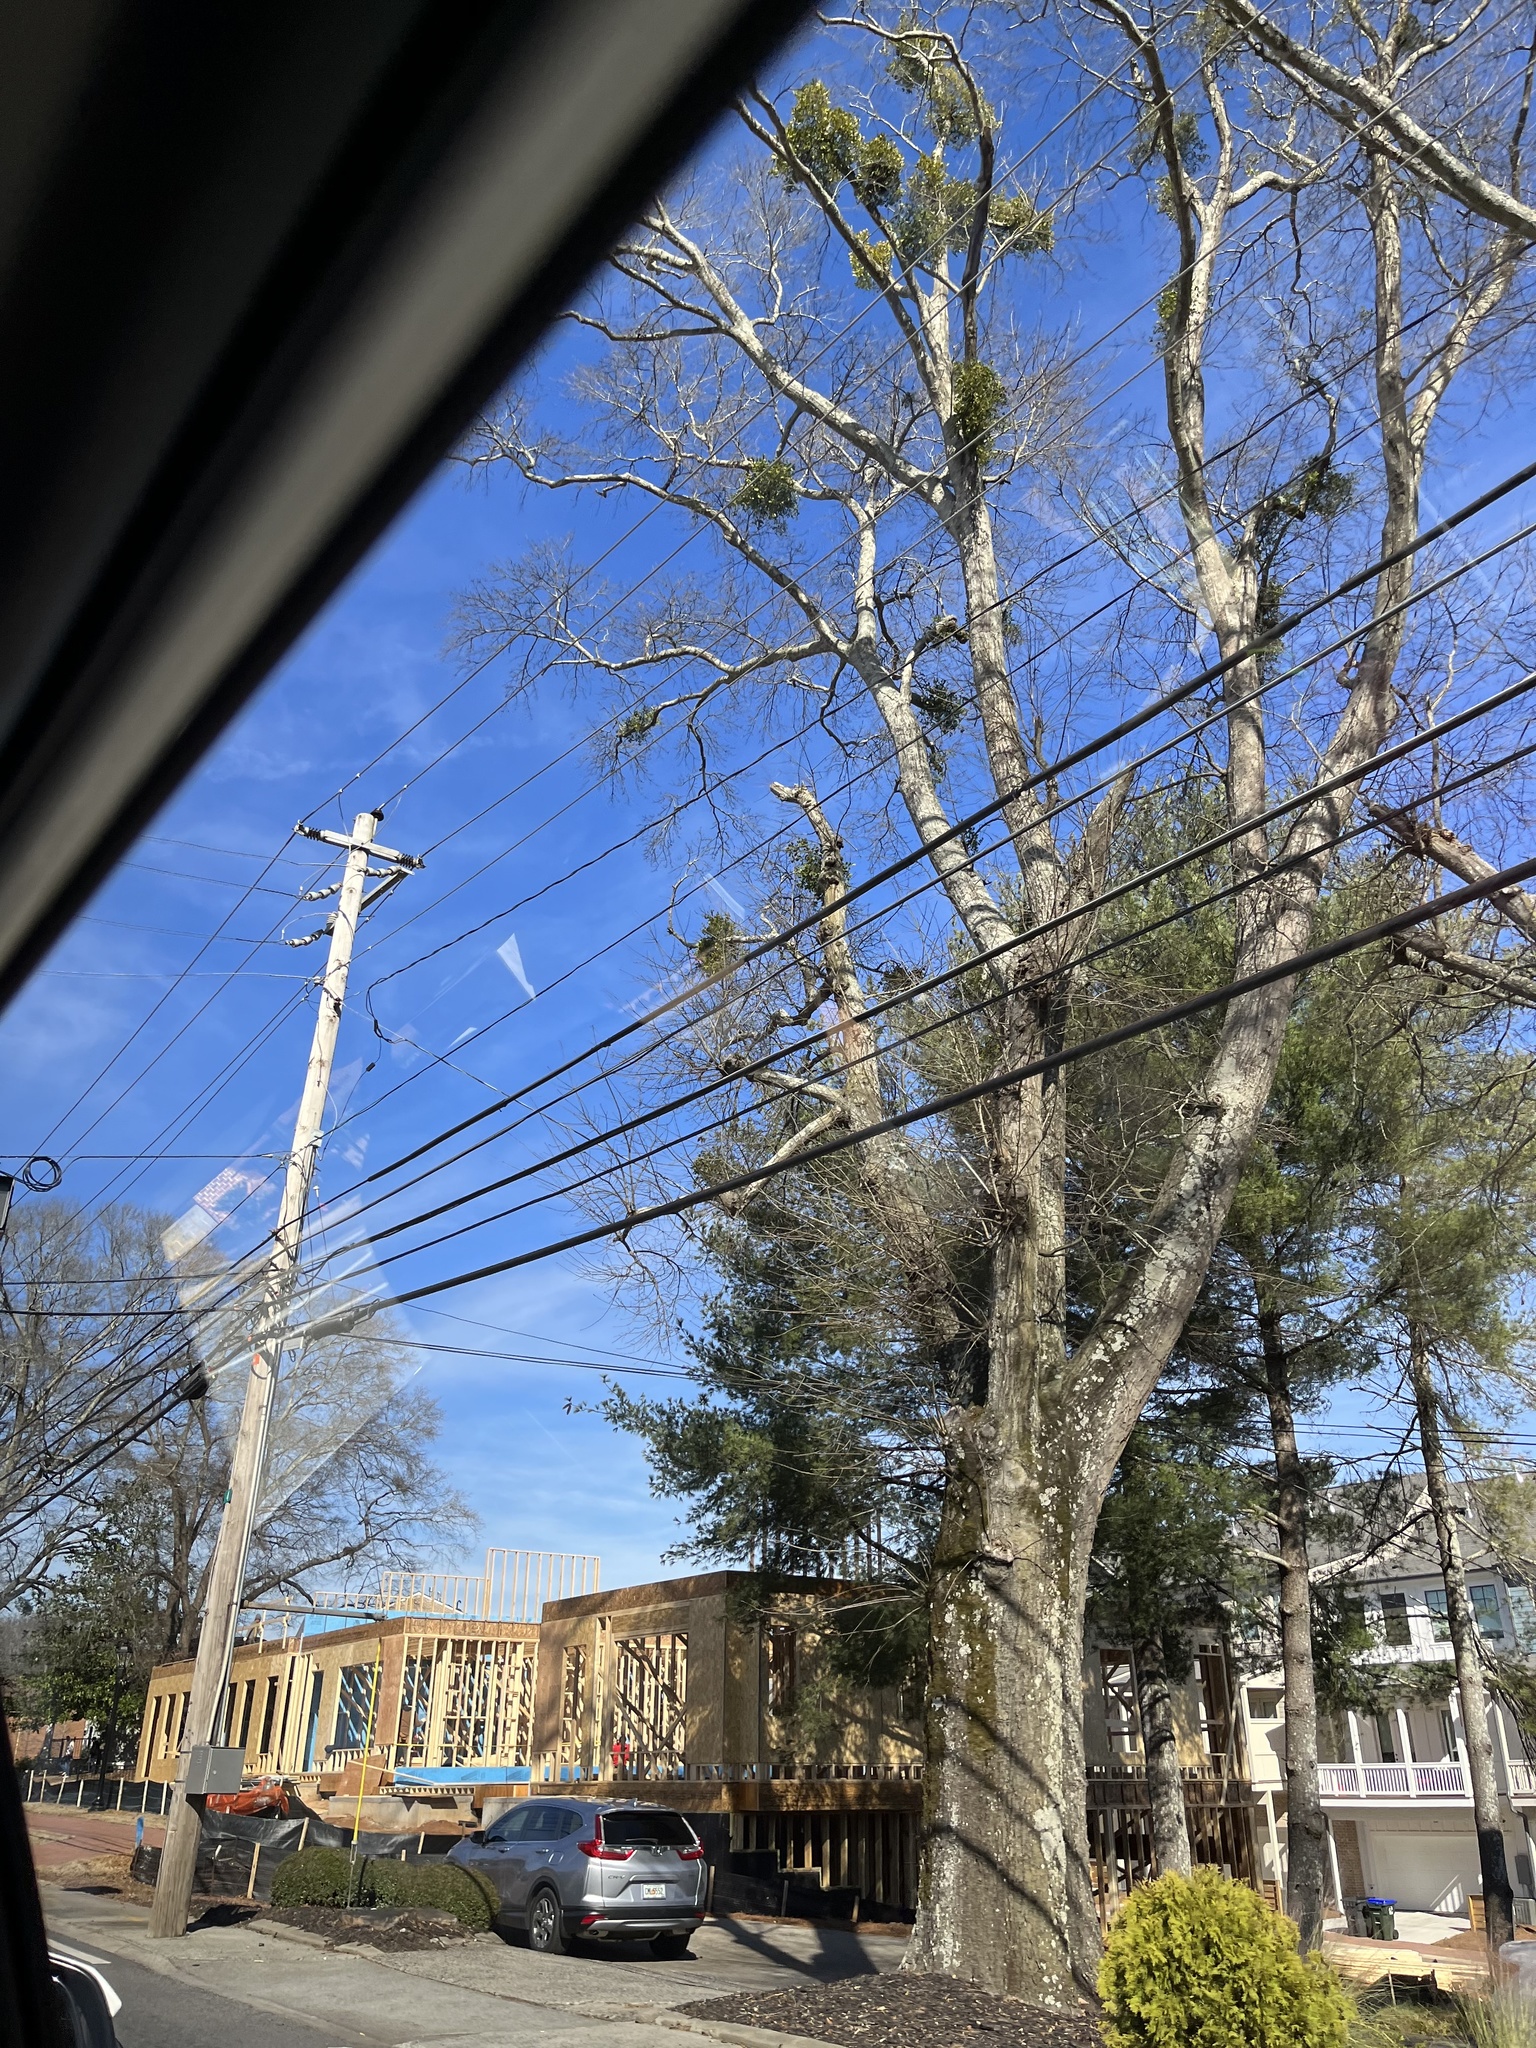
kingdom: Plantae
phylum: Tracheophyta
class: Magnoliopsida
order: Santalales
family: Viscaceae
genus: Phoradendron
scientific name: Phoradendron leucarpum
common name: Pacific mistletoe
